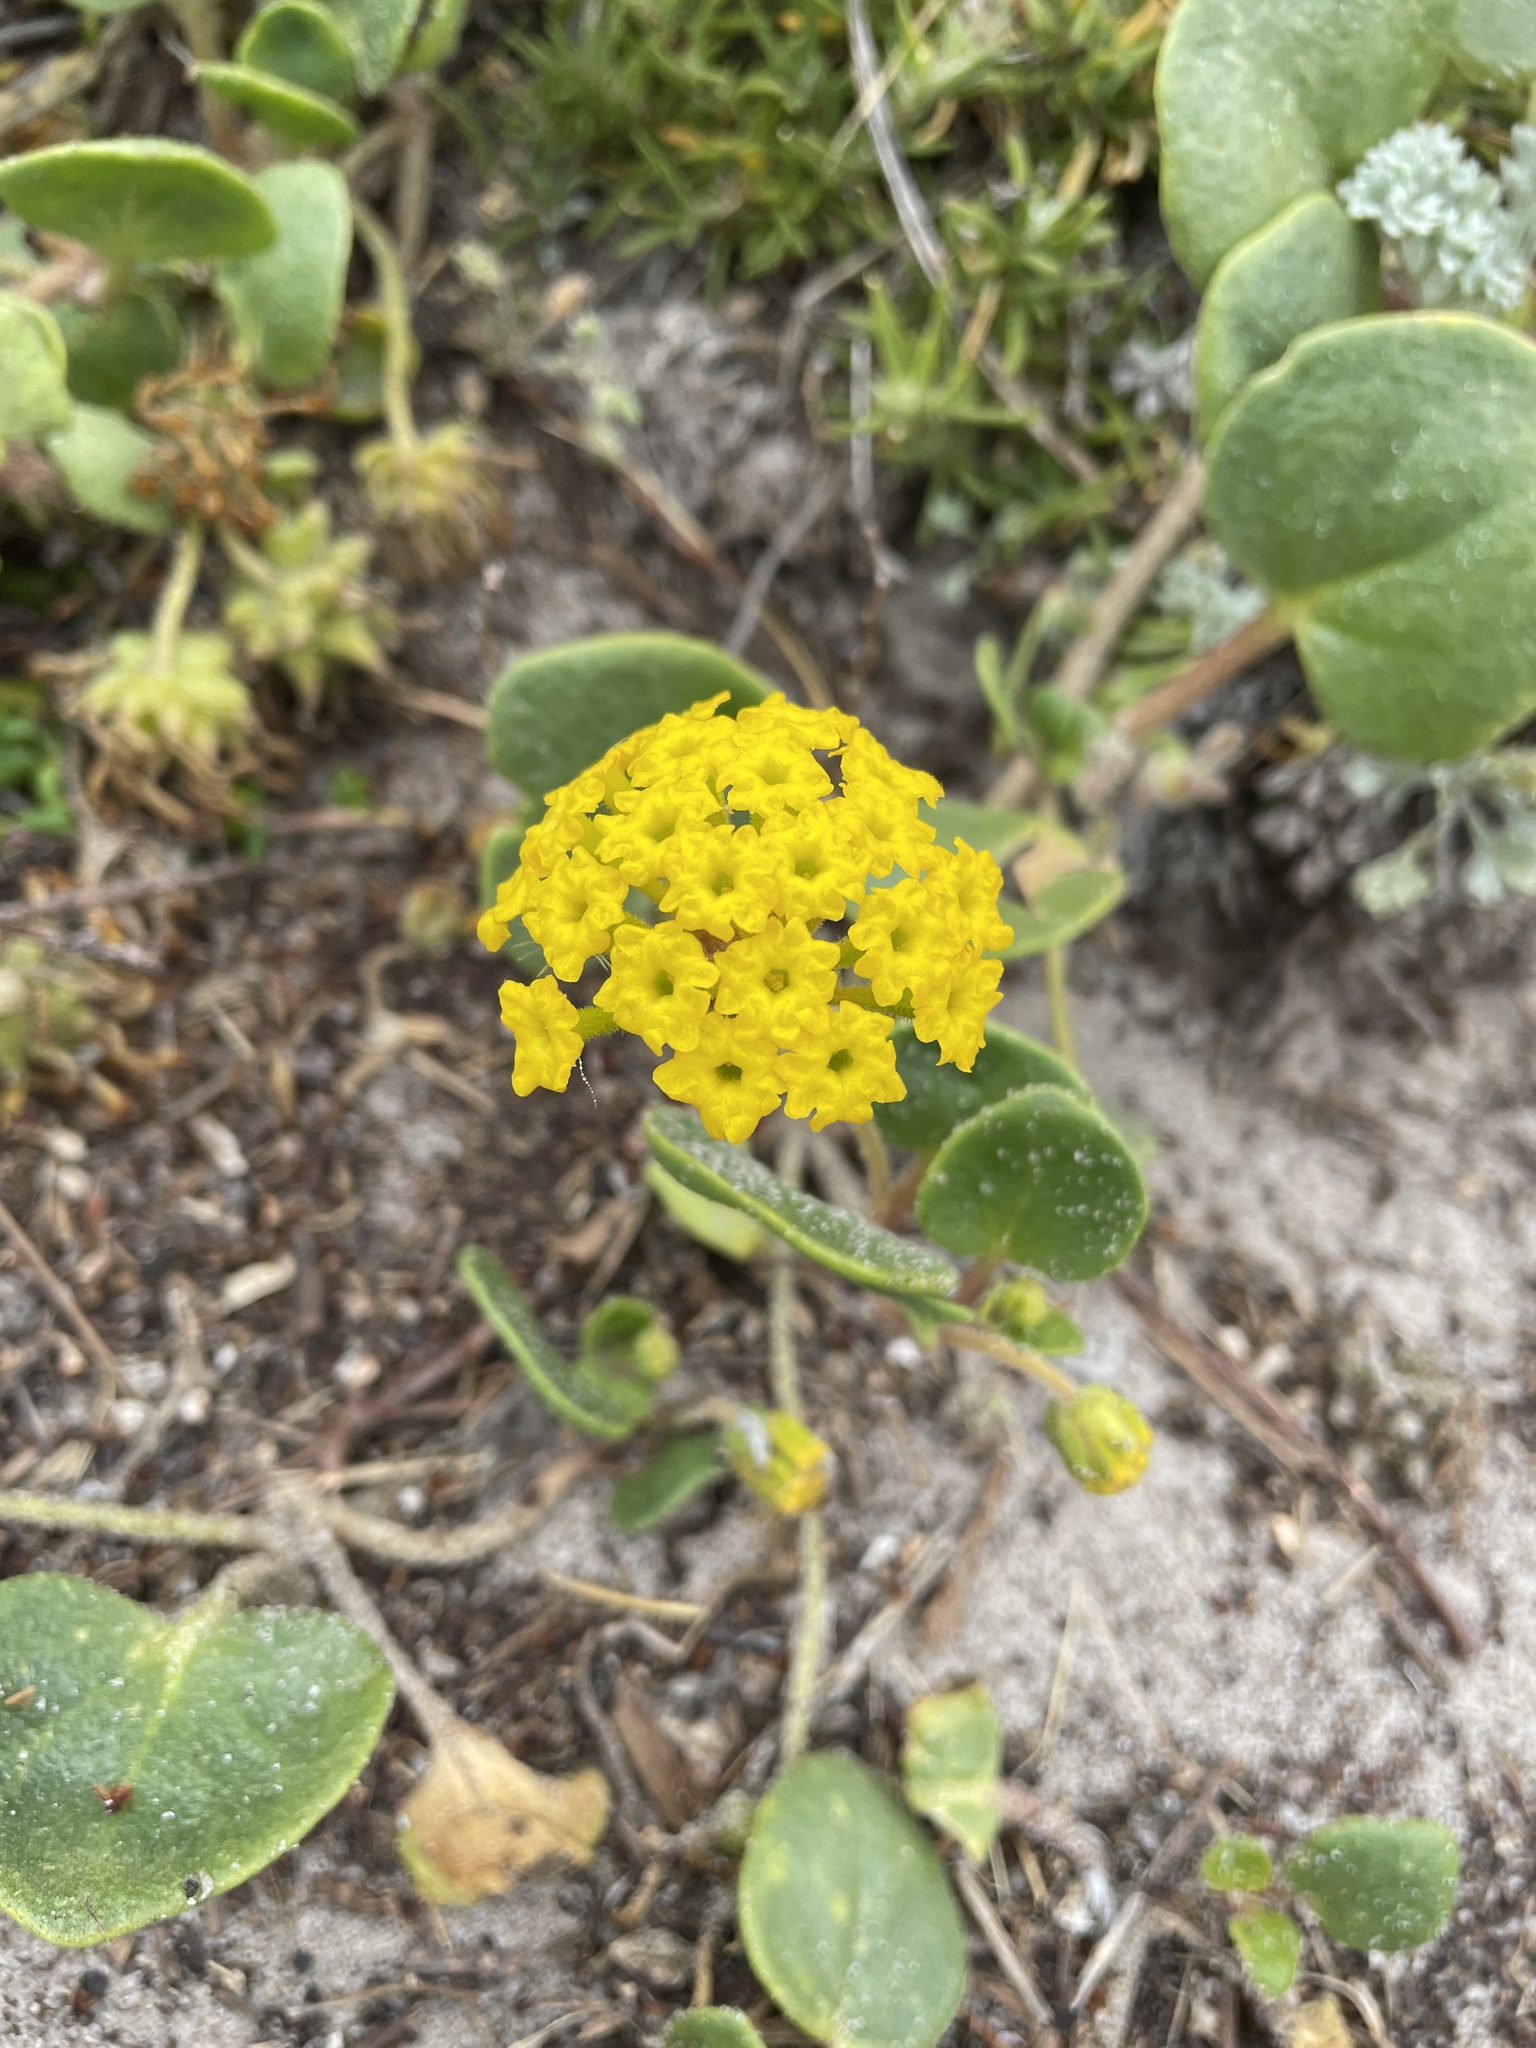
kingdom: Plantae
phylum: Tracheophyta
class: Magnoliopsida
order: Caryophyllales
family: Nyctaginaceae
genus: Abronia
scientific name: Abronia latifolia
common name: Yellow sand-verbena
